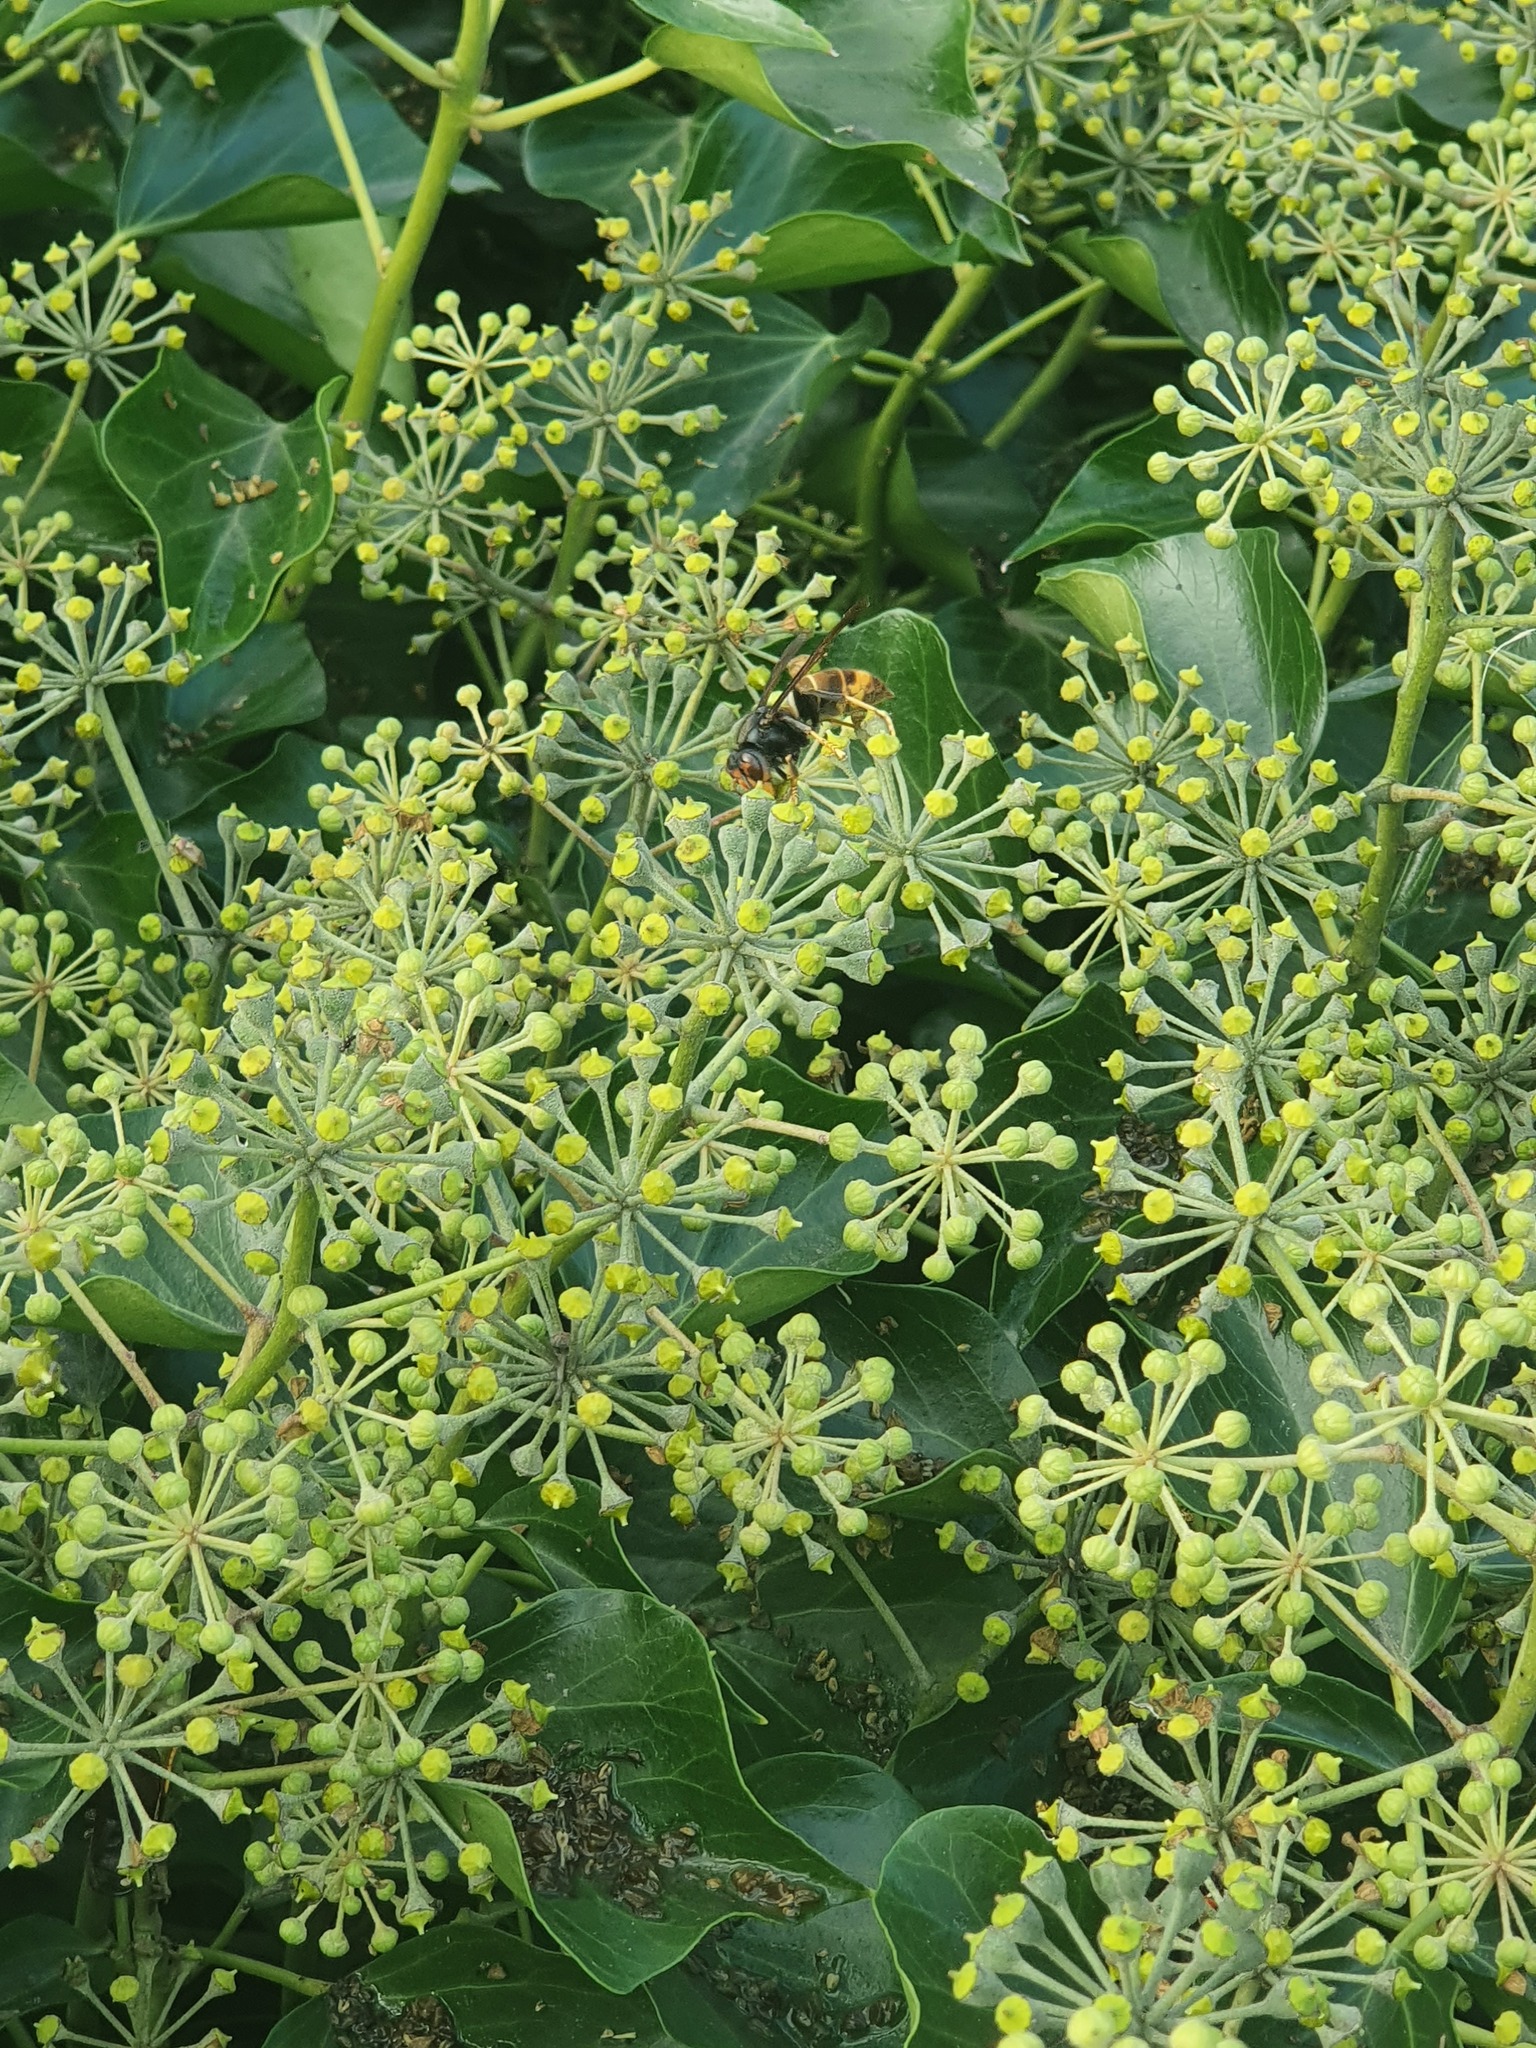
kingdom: Animalia
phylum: Arthropoda
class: Insecta
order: Hymenoptera
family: Vespidae
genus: Vespa
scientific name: Vespa velutina
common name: Asian hornet
